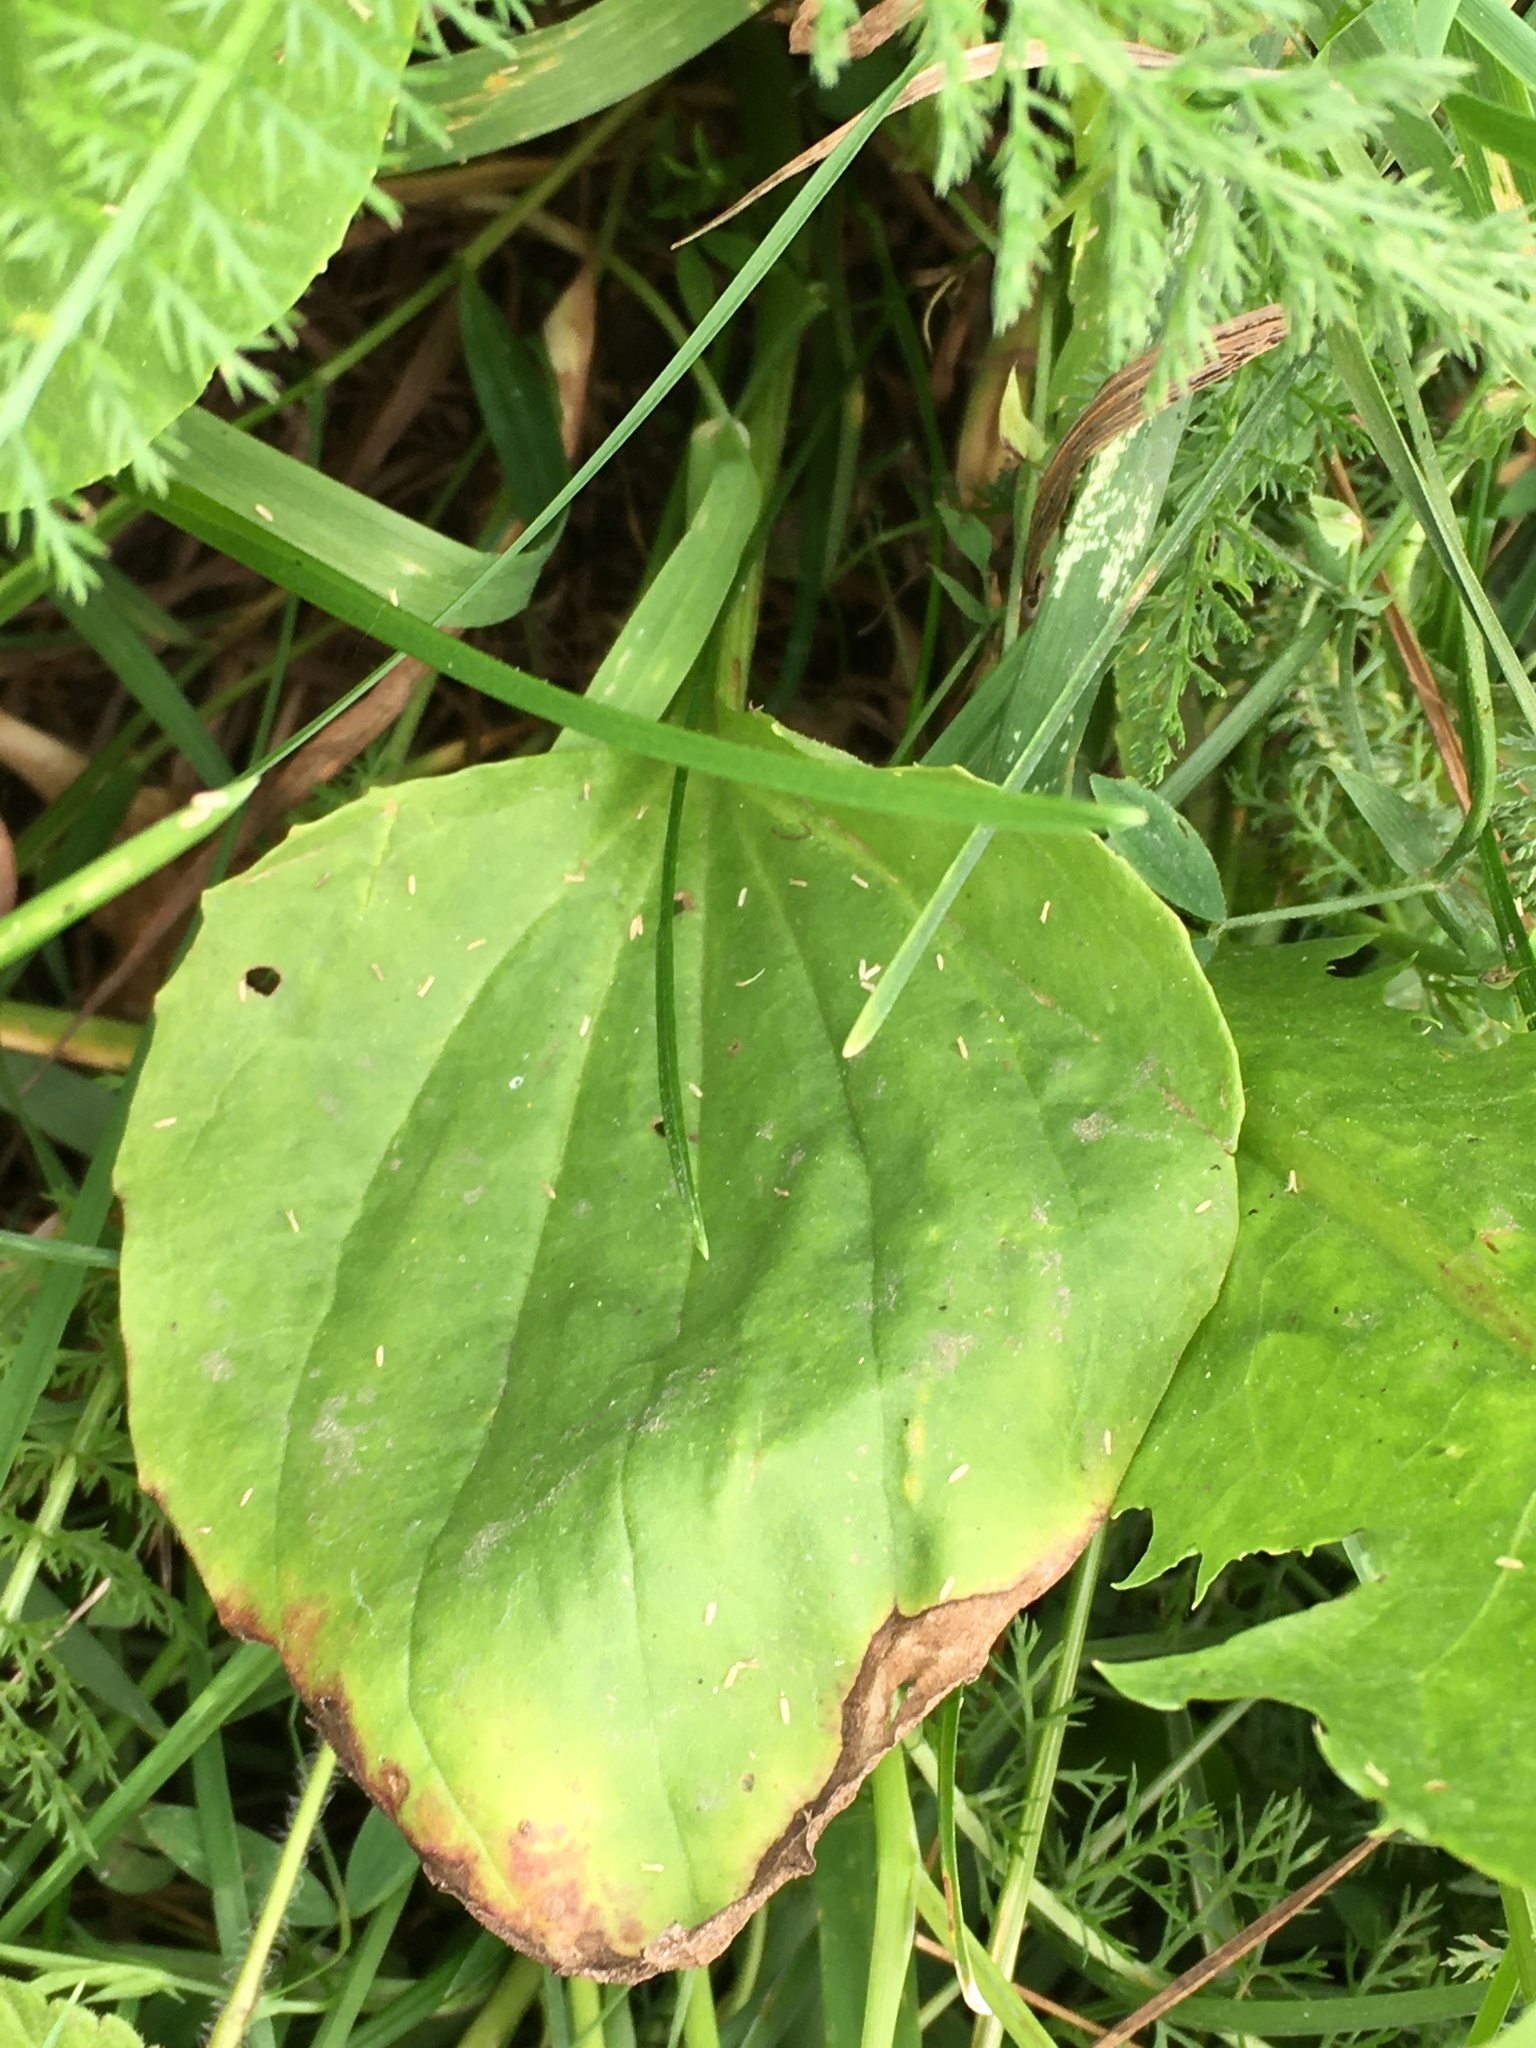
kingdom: Plantae
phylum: Tracheophyta
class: Magnoliopsida
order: Lamiales
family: Plantaginaceae
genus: Plantago
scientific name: Plantago major
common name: Common plantain
